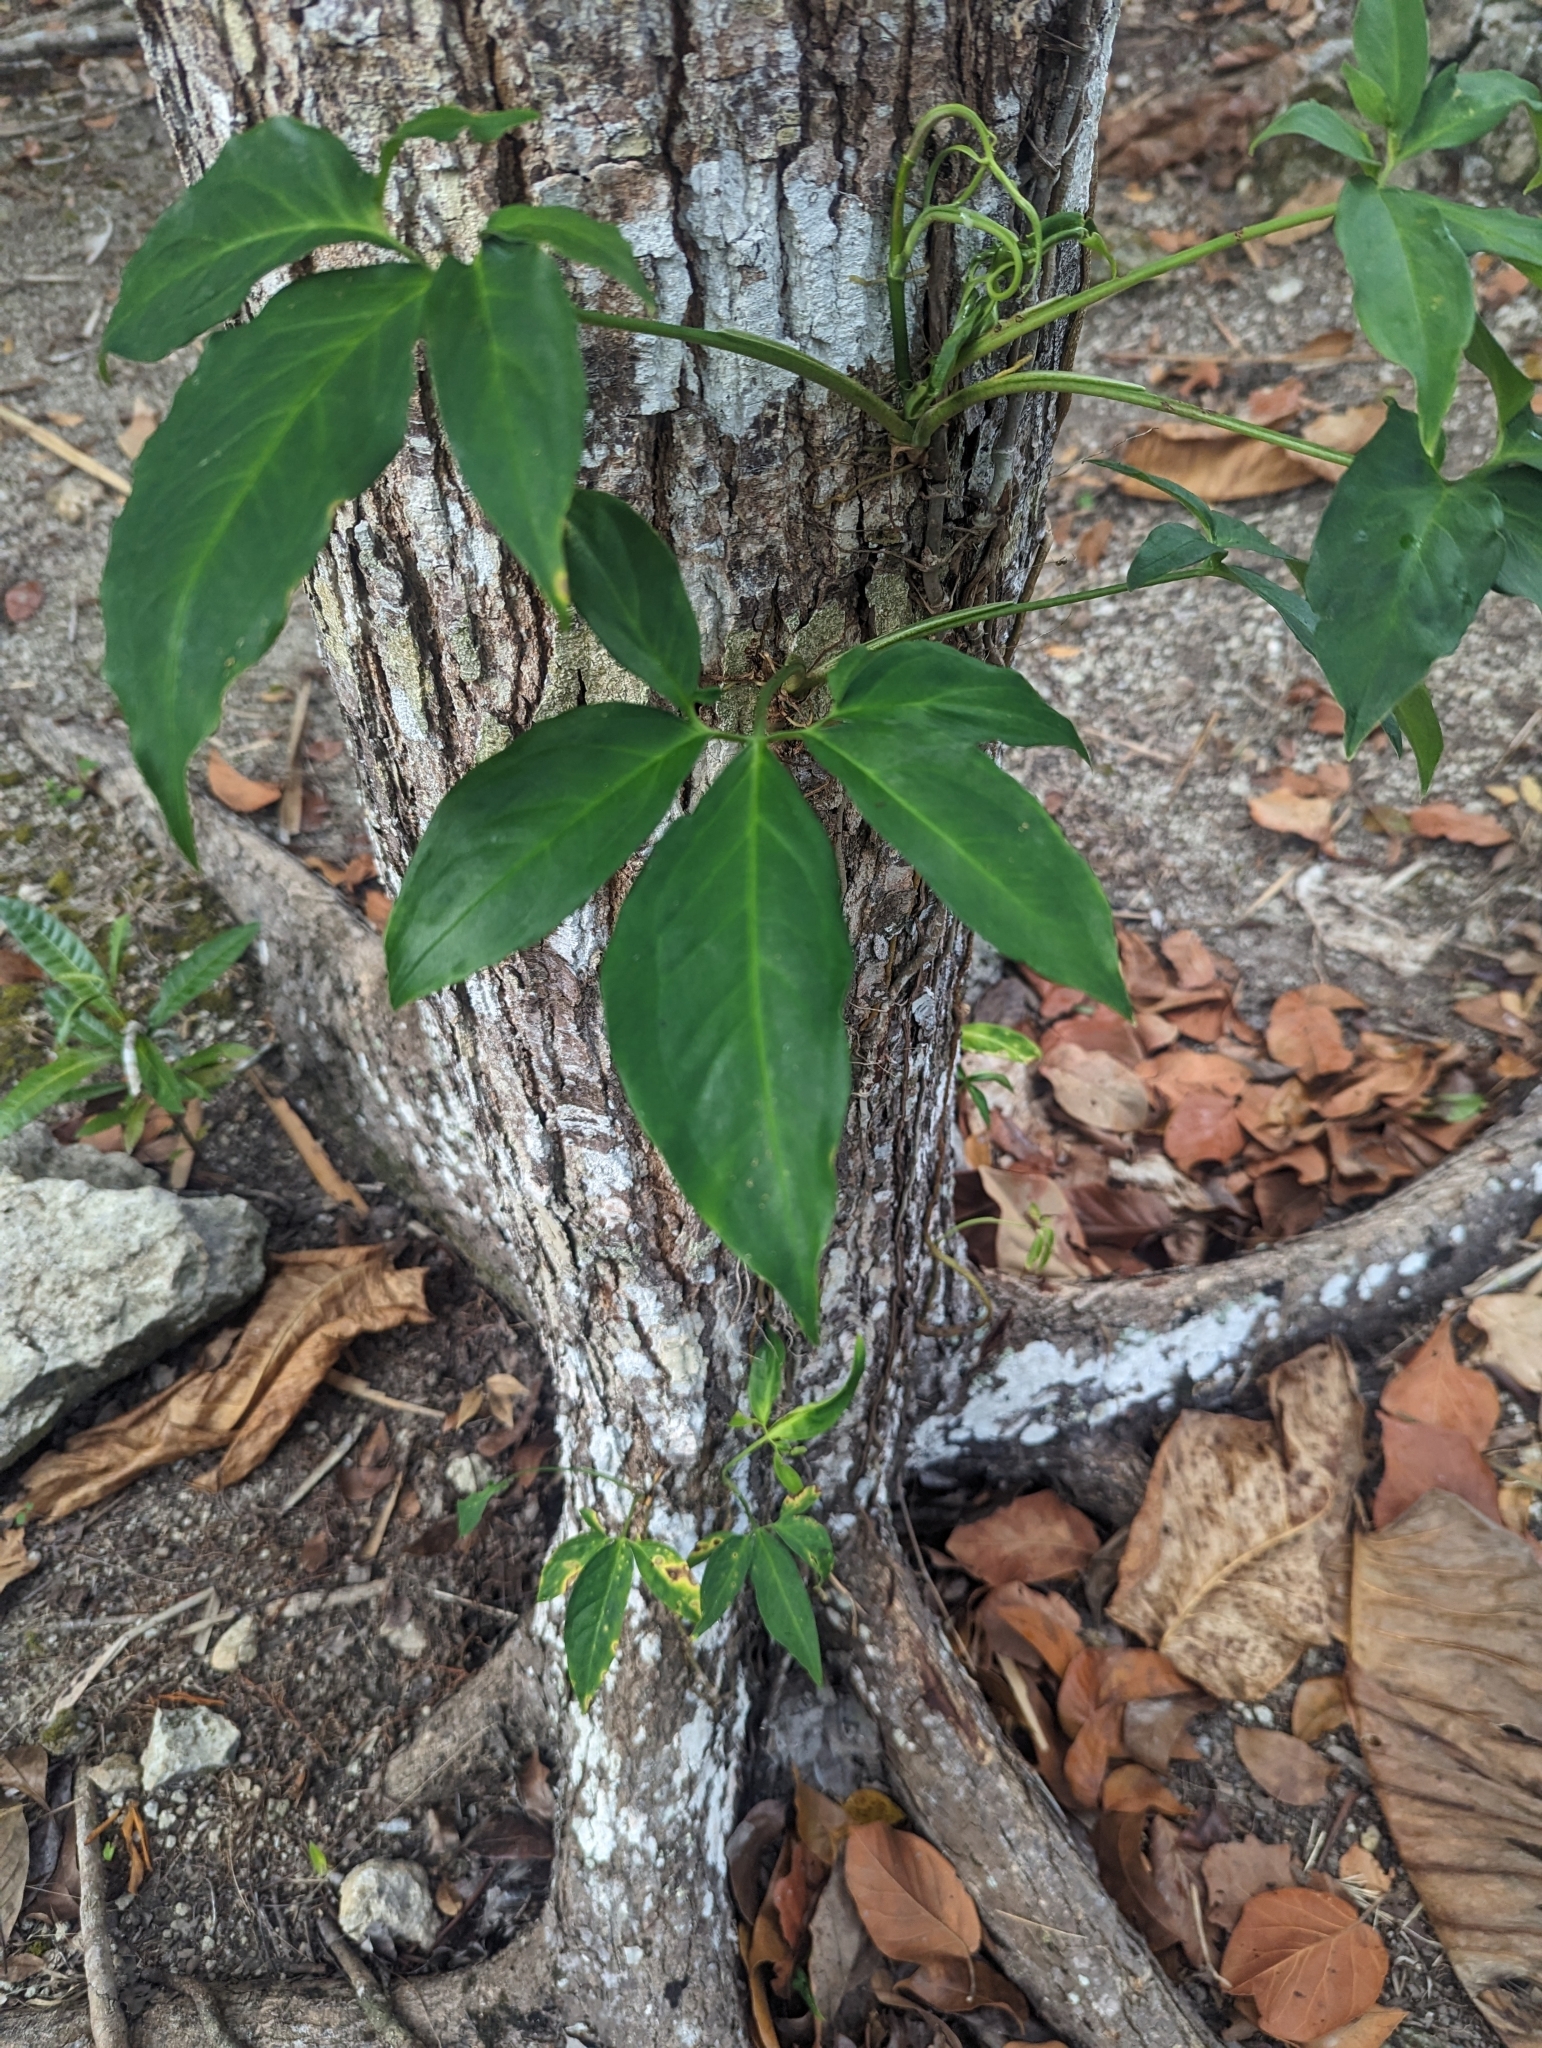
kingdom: Plantae
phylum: Tracheophyta
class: Liliopsida
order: Alismatales
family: Araceae
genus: Syngonium
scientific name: Syngonium angustatum
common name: Fivefingers
